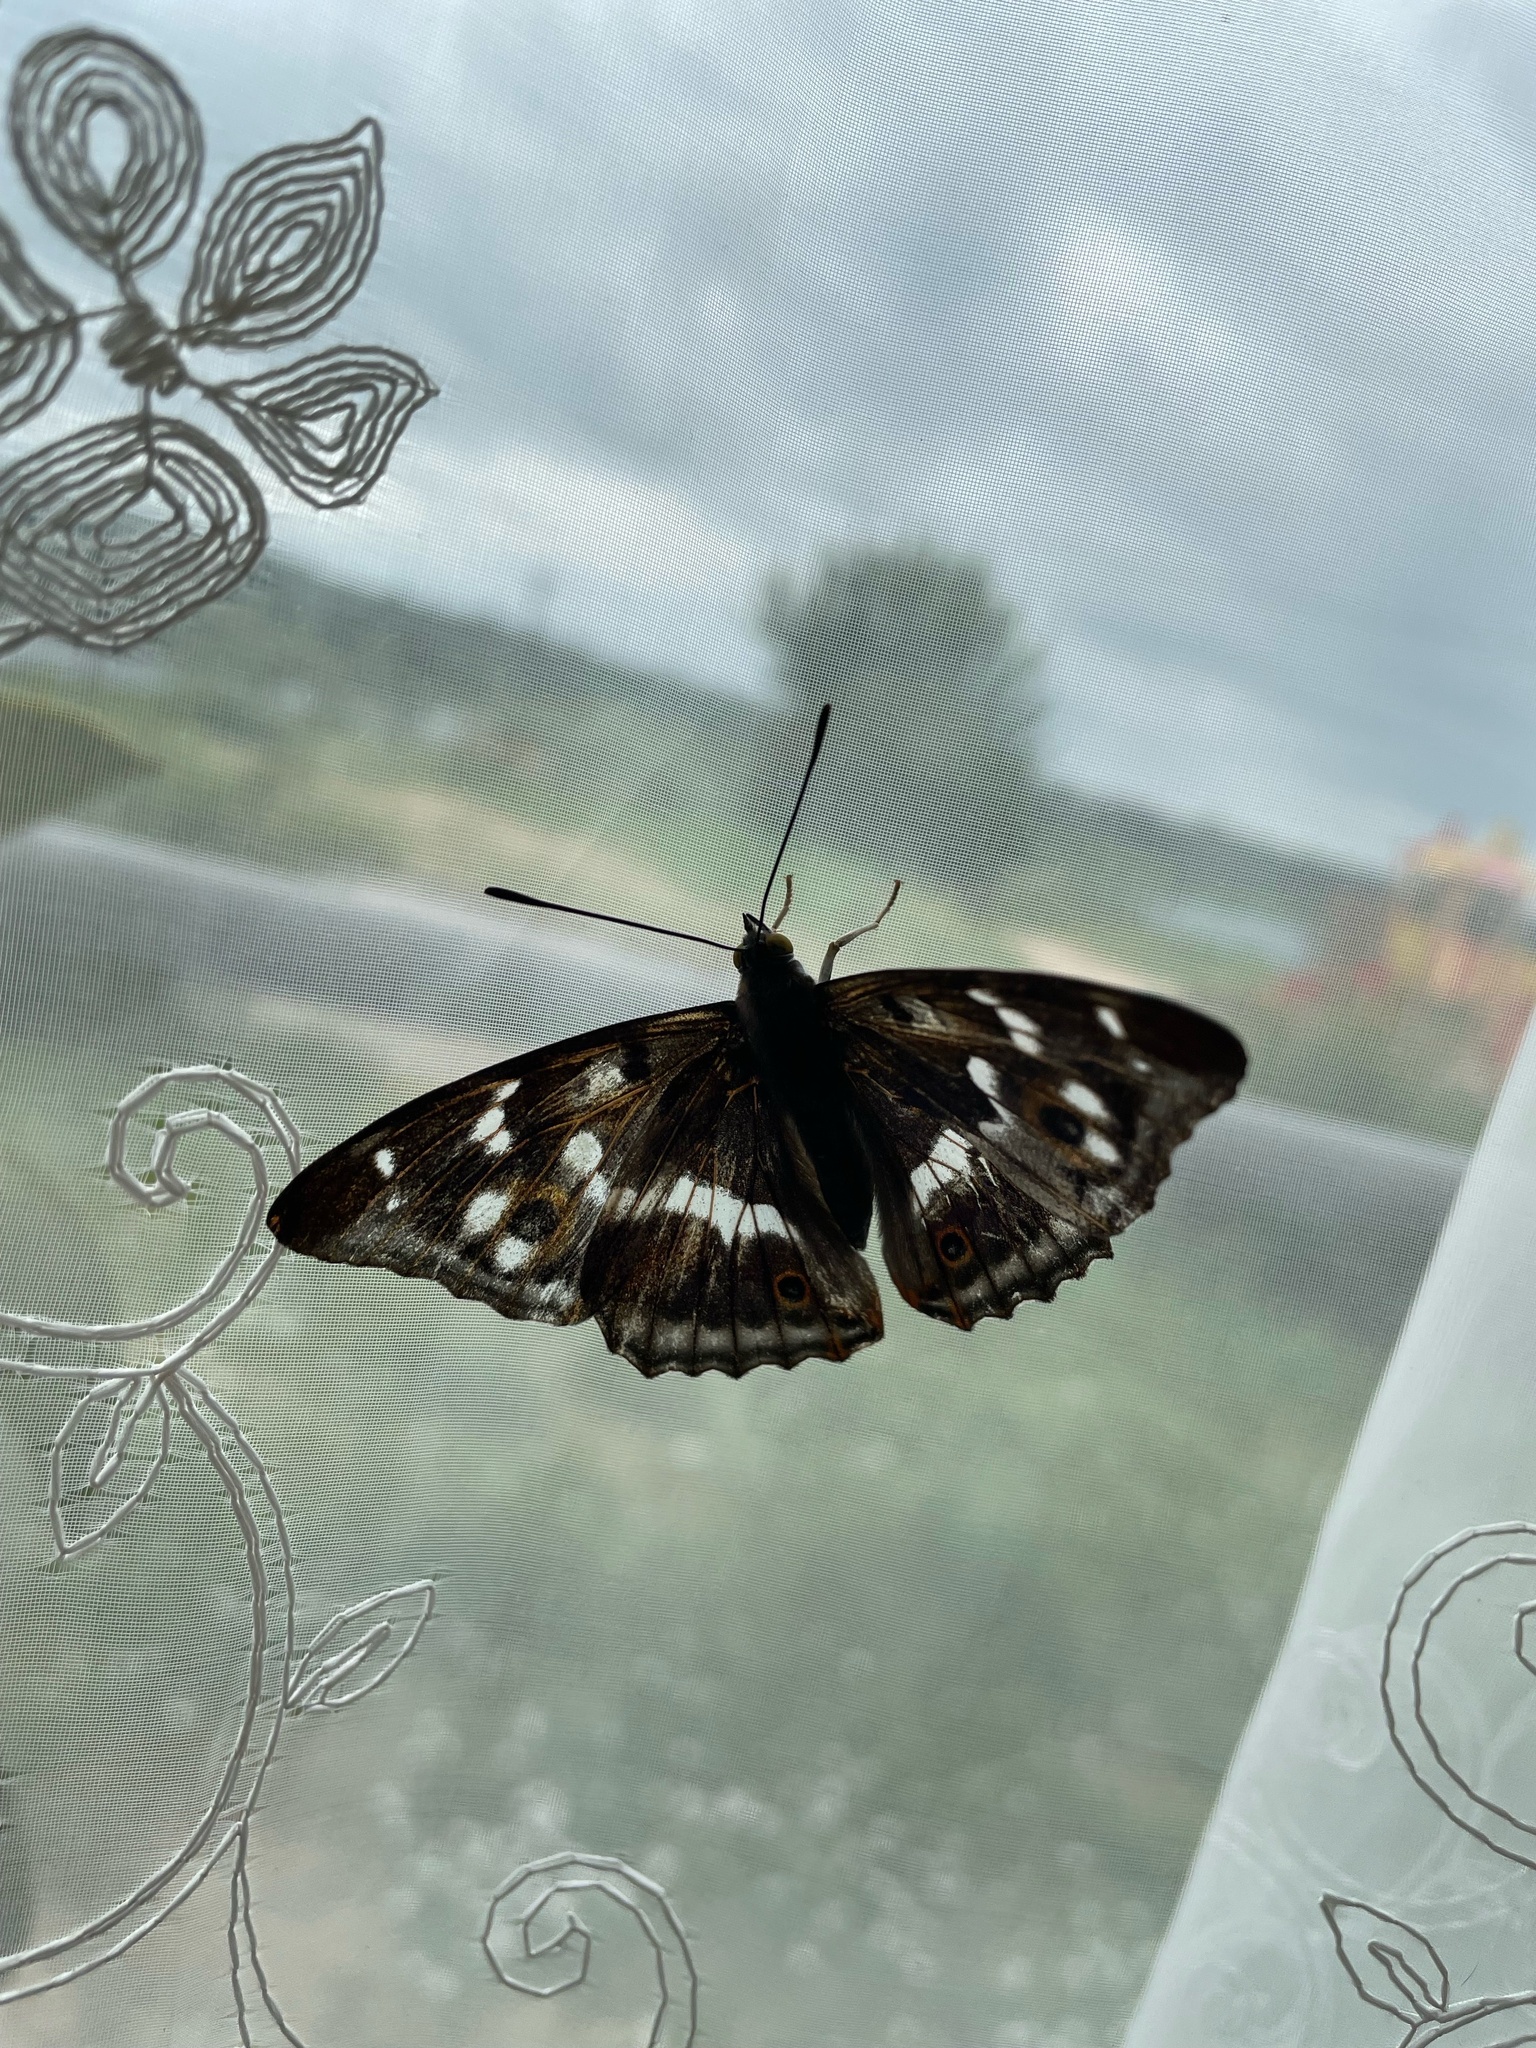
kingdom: Animalia
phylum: Arthropoda
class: Insecta
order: Lepidoptera
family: Nymphalidae
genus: Apatura
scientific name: Apatura iris
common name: Purple emperor
